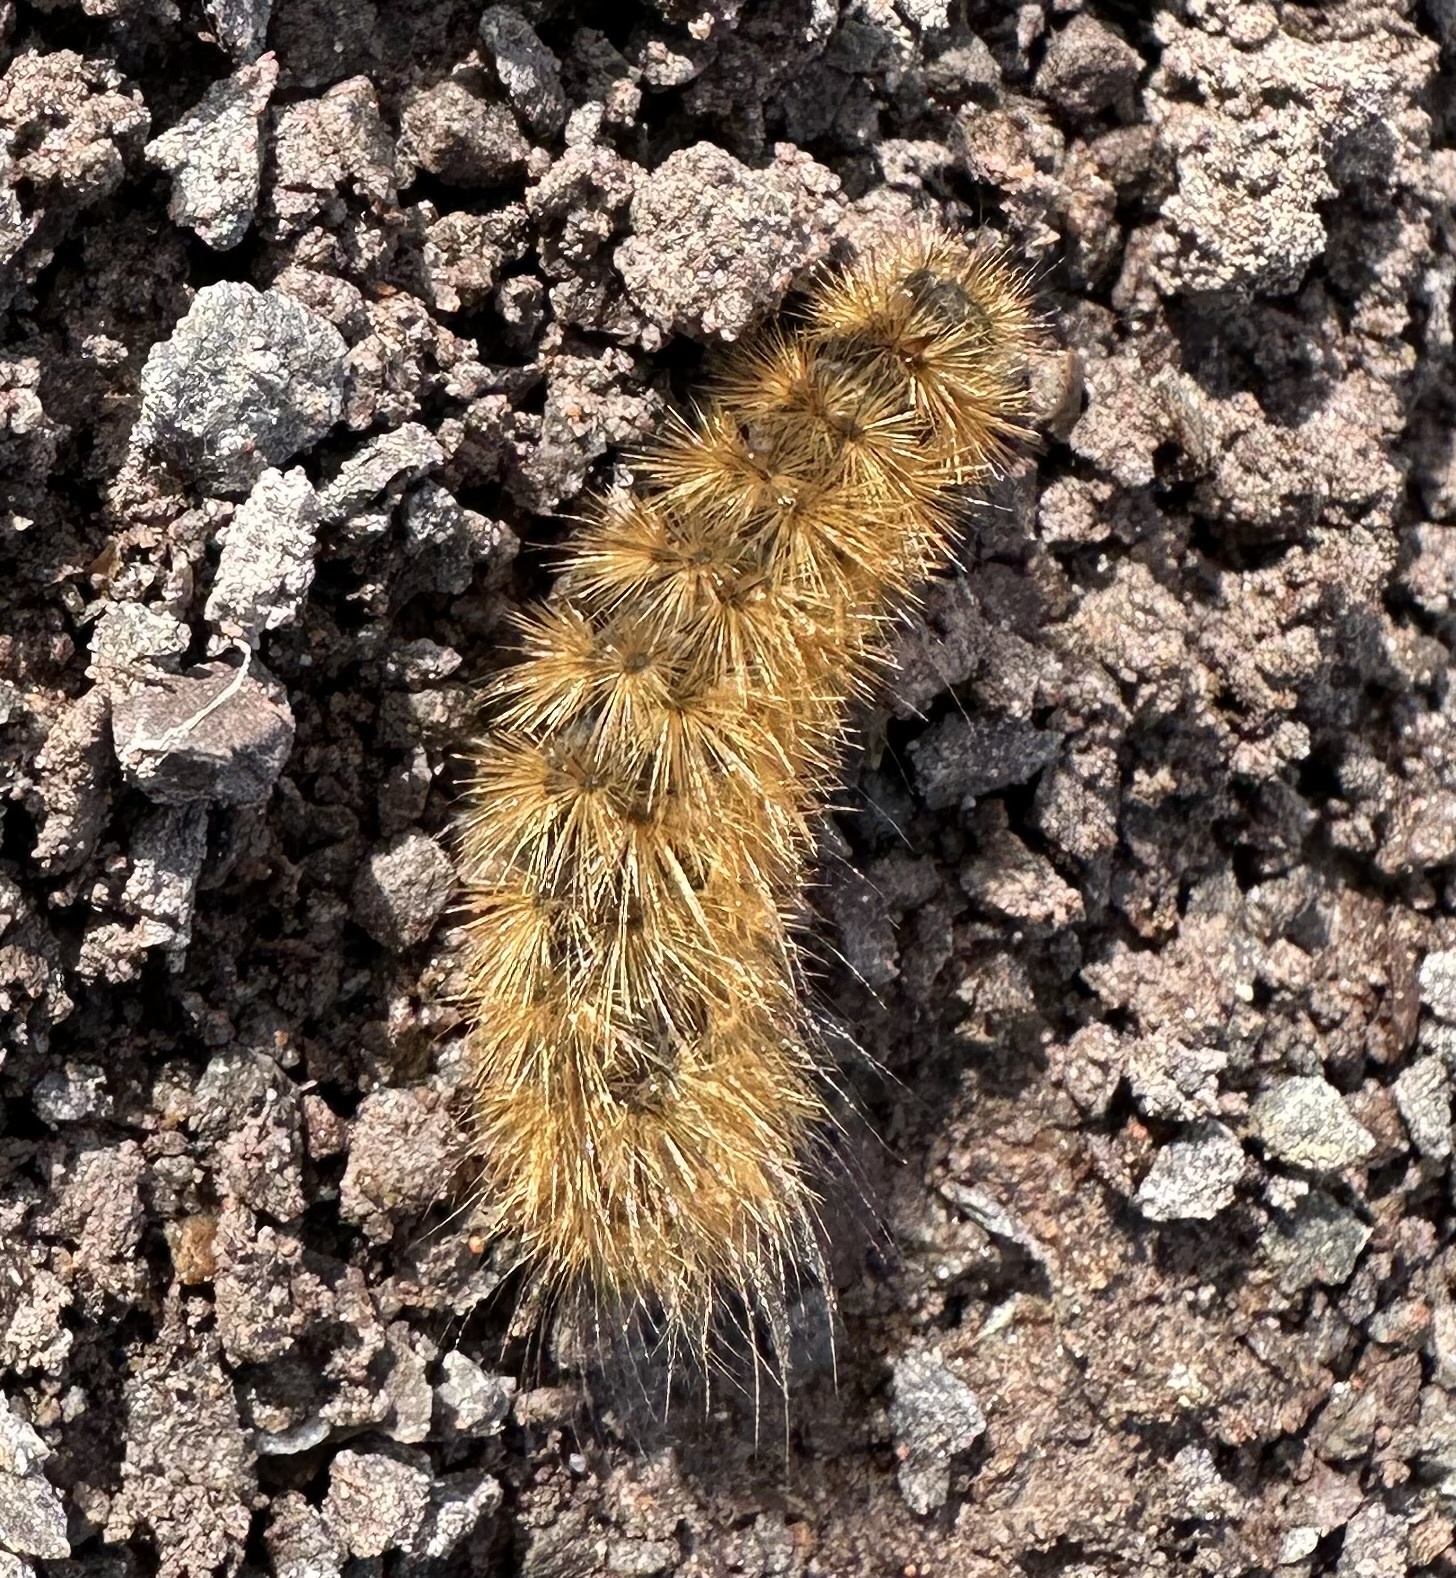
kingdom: Animalia
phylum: Arthropoda
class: Insecta
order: Lepidoptera
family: Erebidae
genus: Phragmatobia
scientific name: Phragmatobia fuliginosa
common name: Ruby tiger
